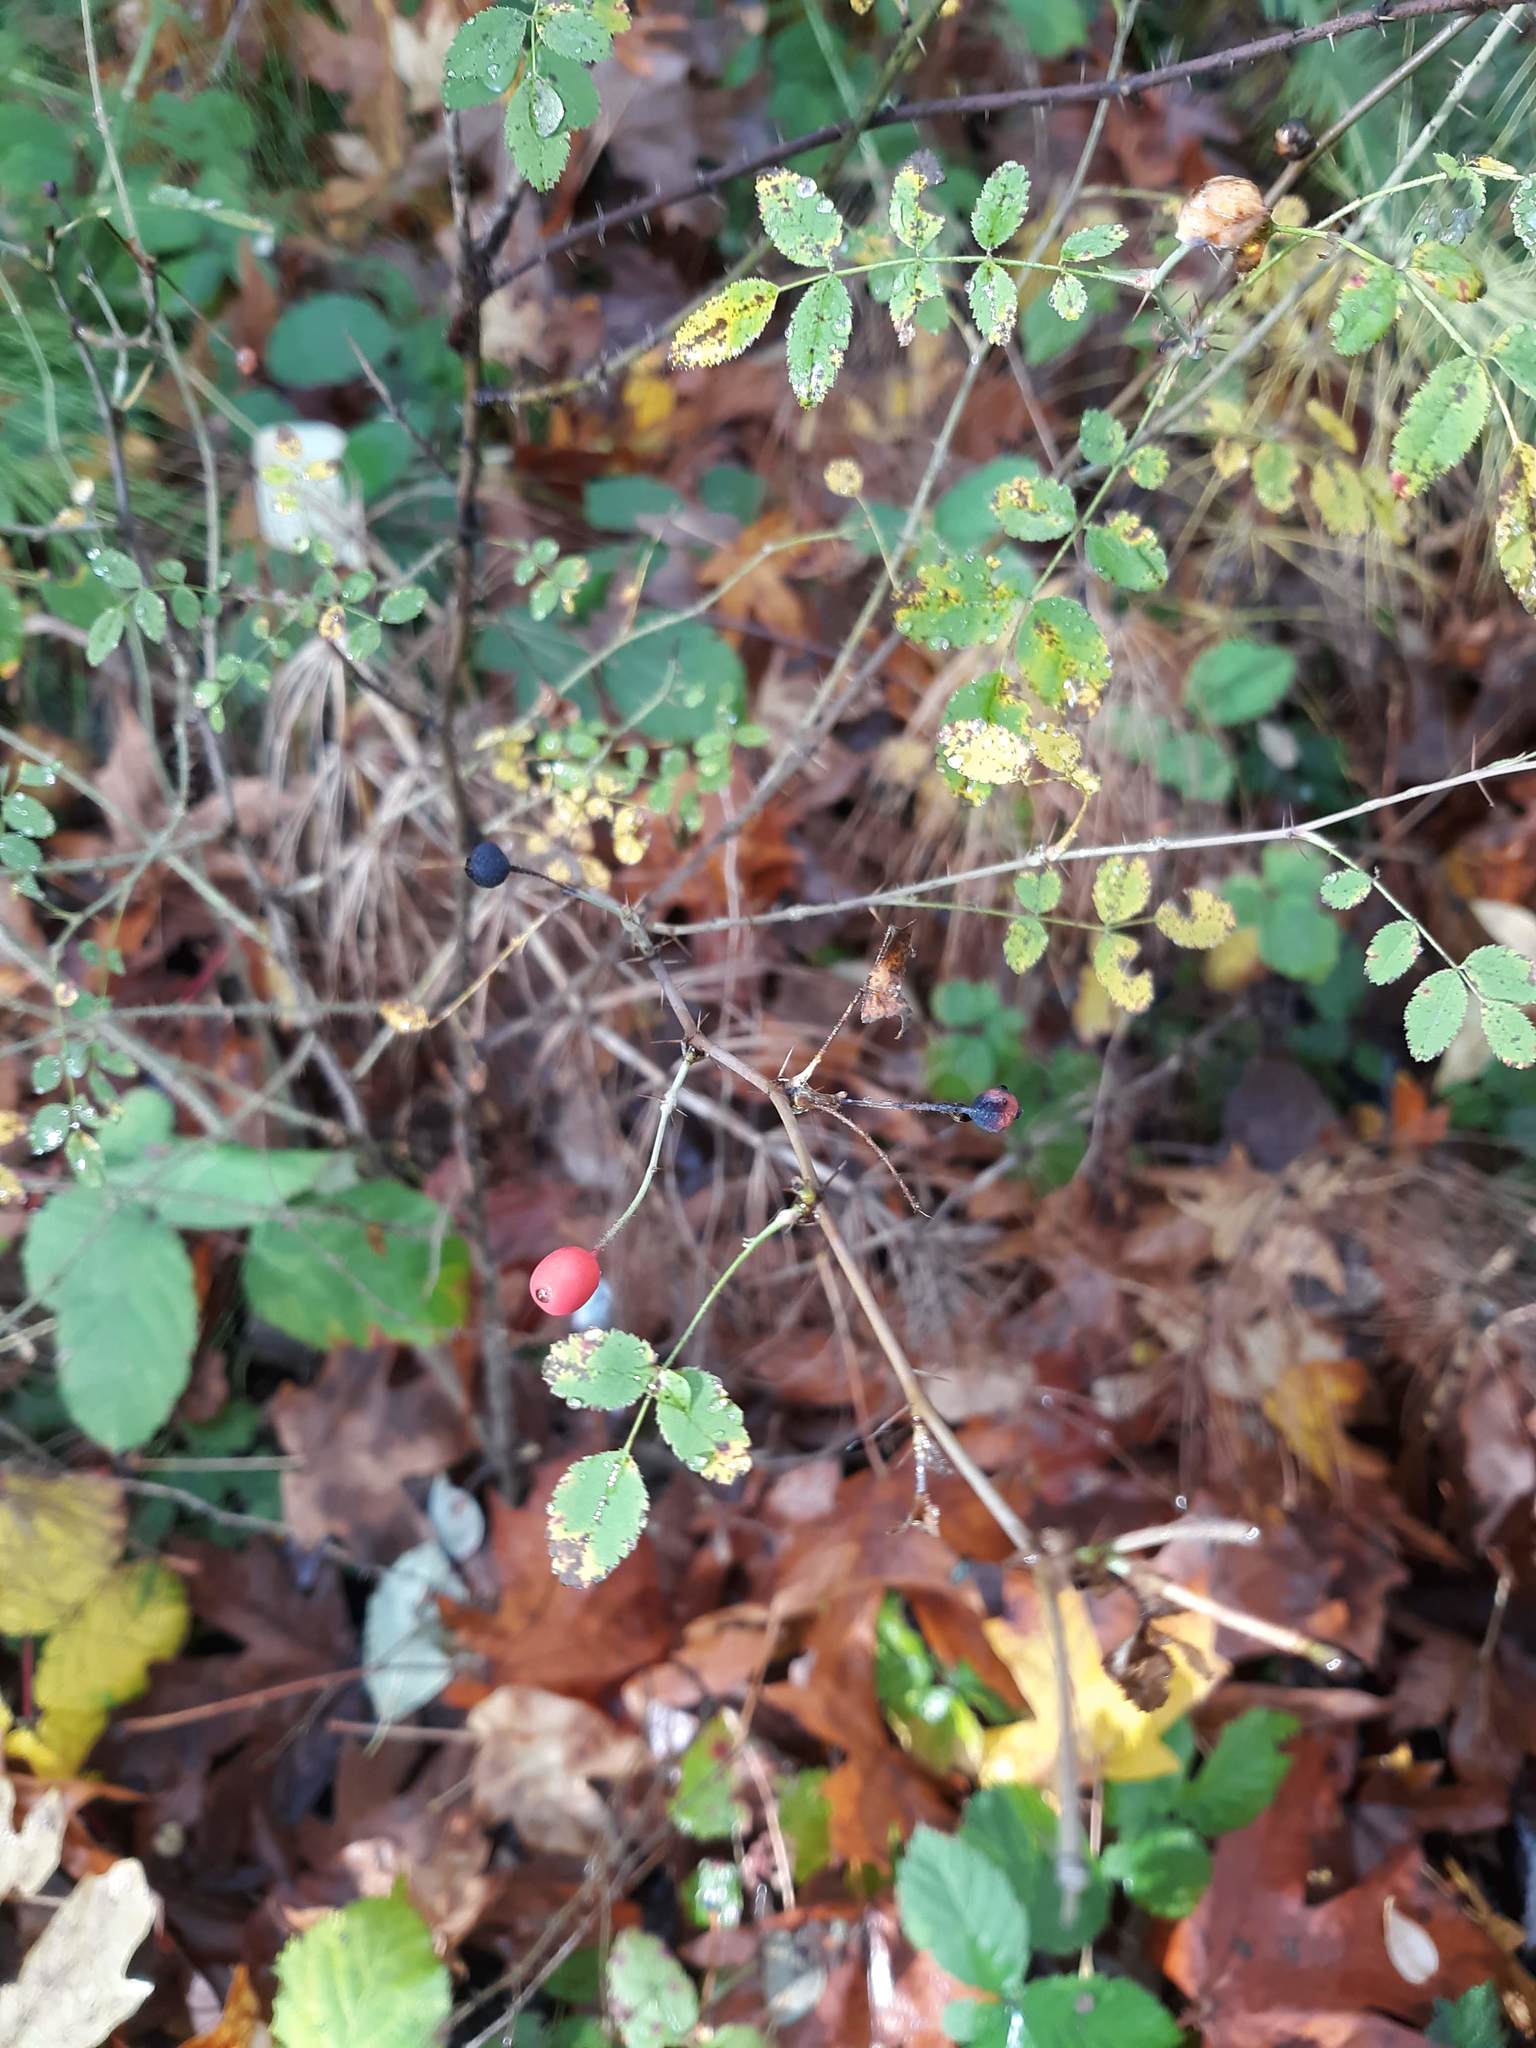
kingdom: Plantae
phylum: Tracheophyta
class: Magnoliopsida
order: Rosales
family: Rosaceae
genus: Rosa
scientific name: Rosa gymnocarpa
